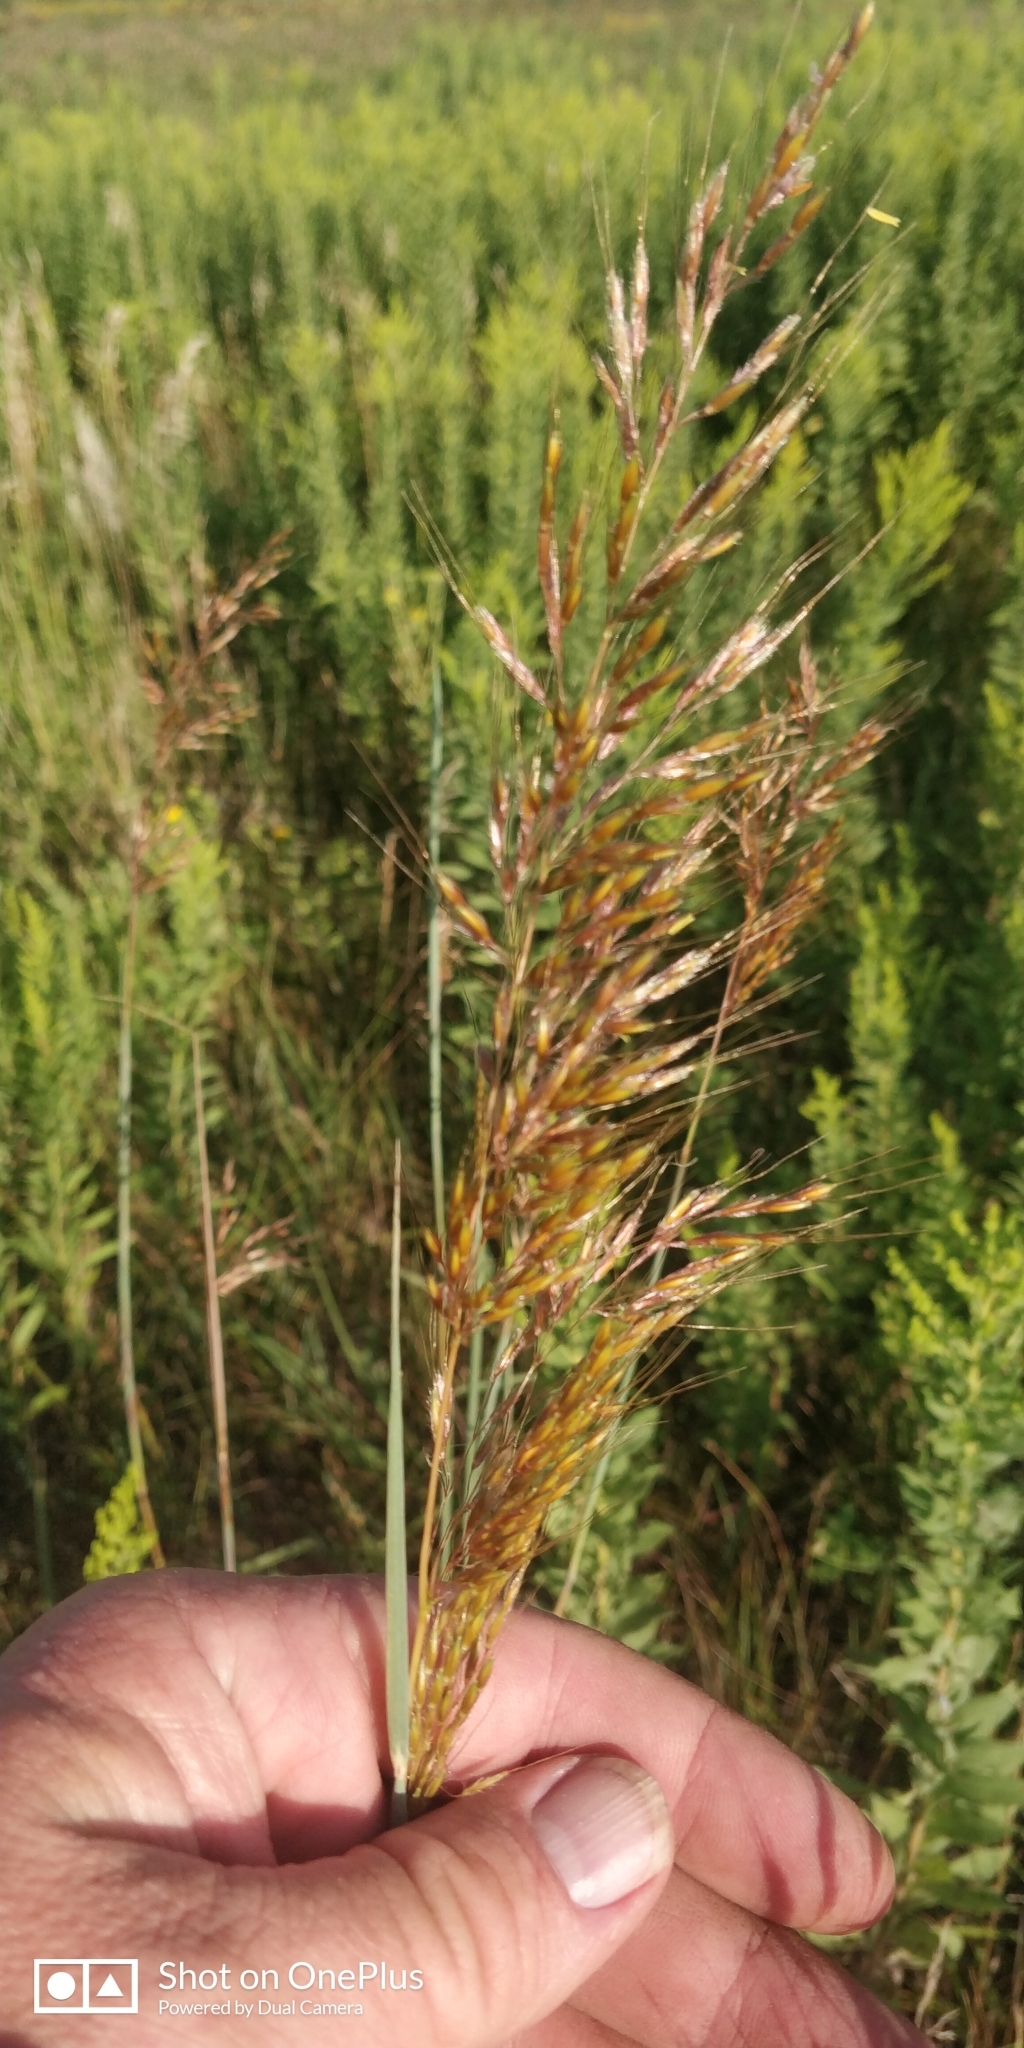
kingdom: Plantae
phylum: Tracheophyta
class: Liliopsida
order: Poales
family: Poaceae
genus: Sorghastrum
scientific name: Sorghastrum nutans
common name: Indian grass
